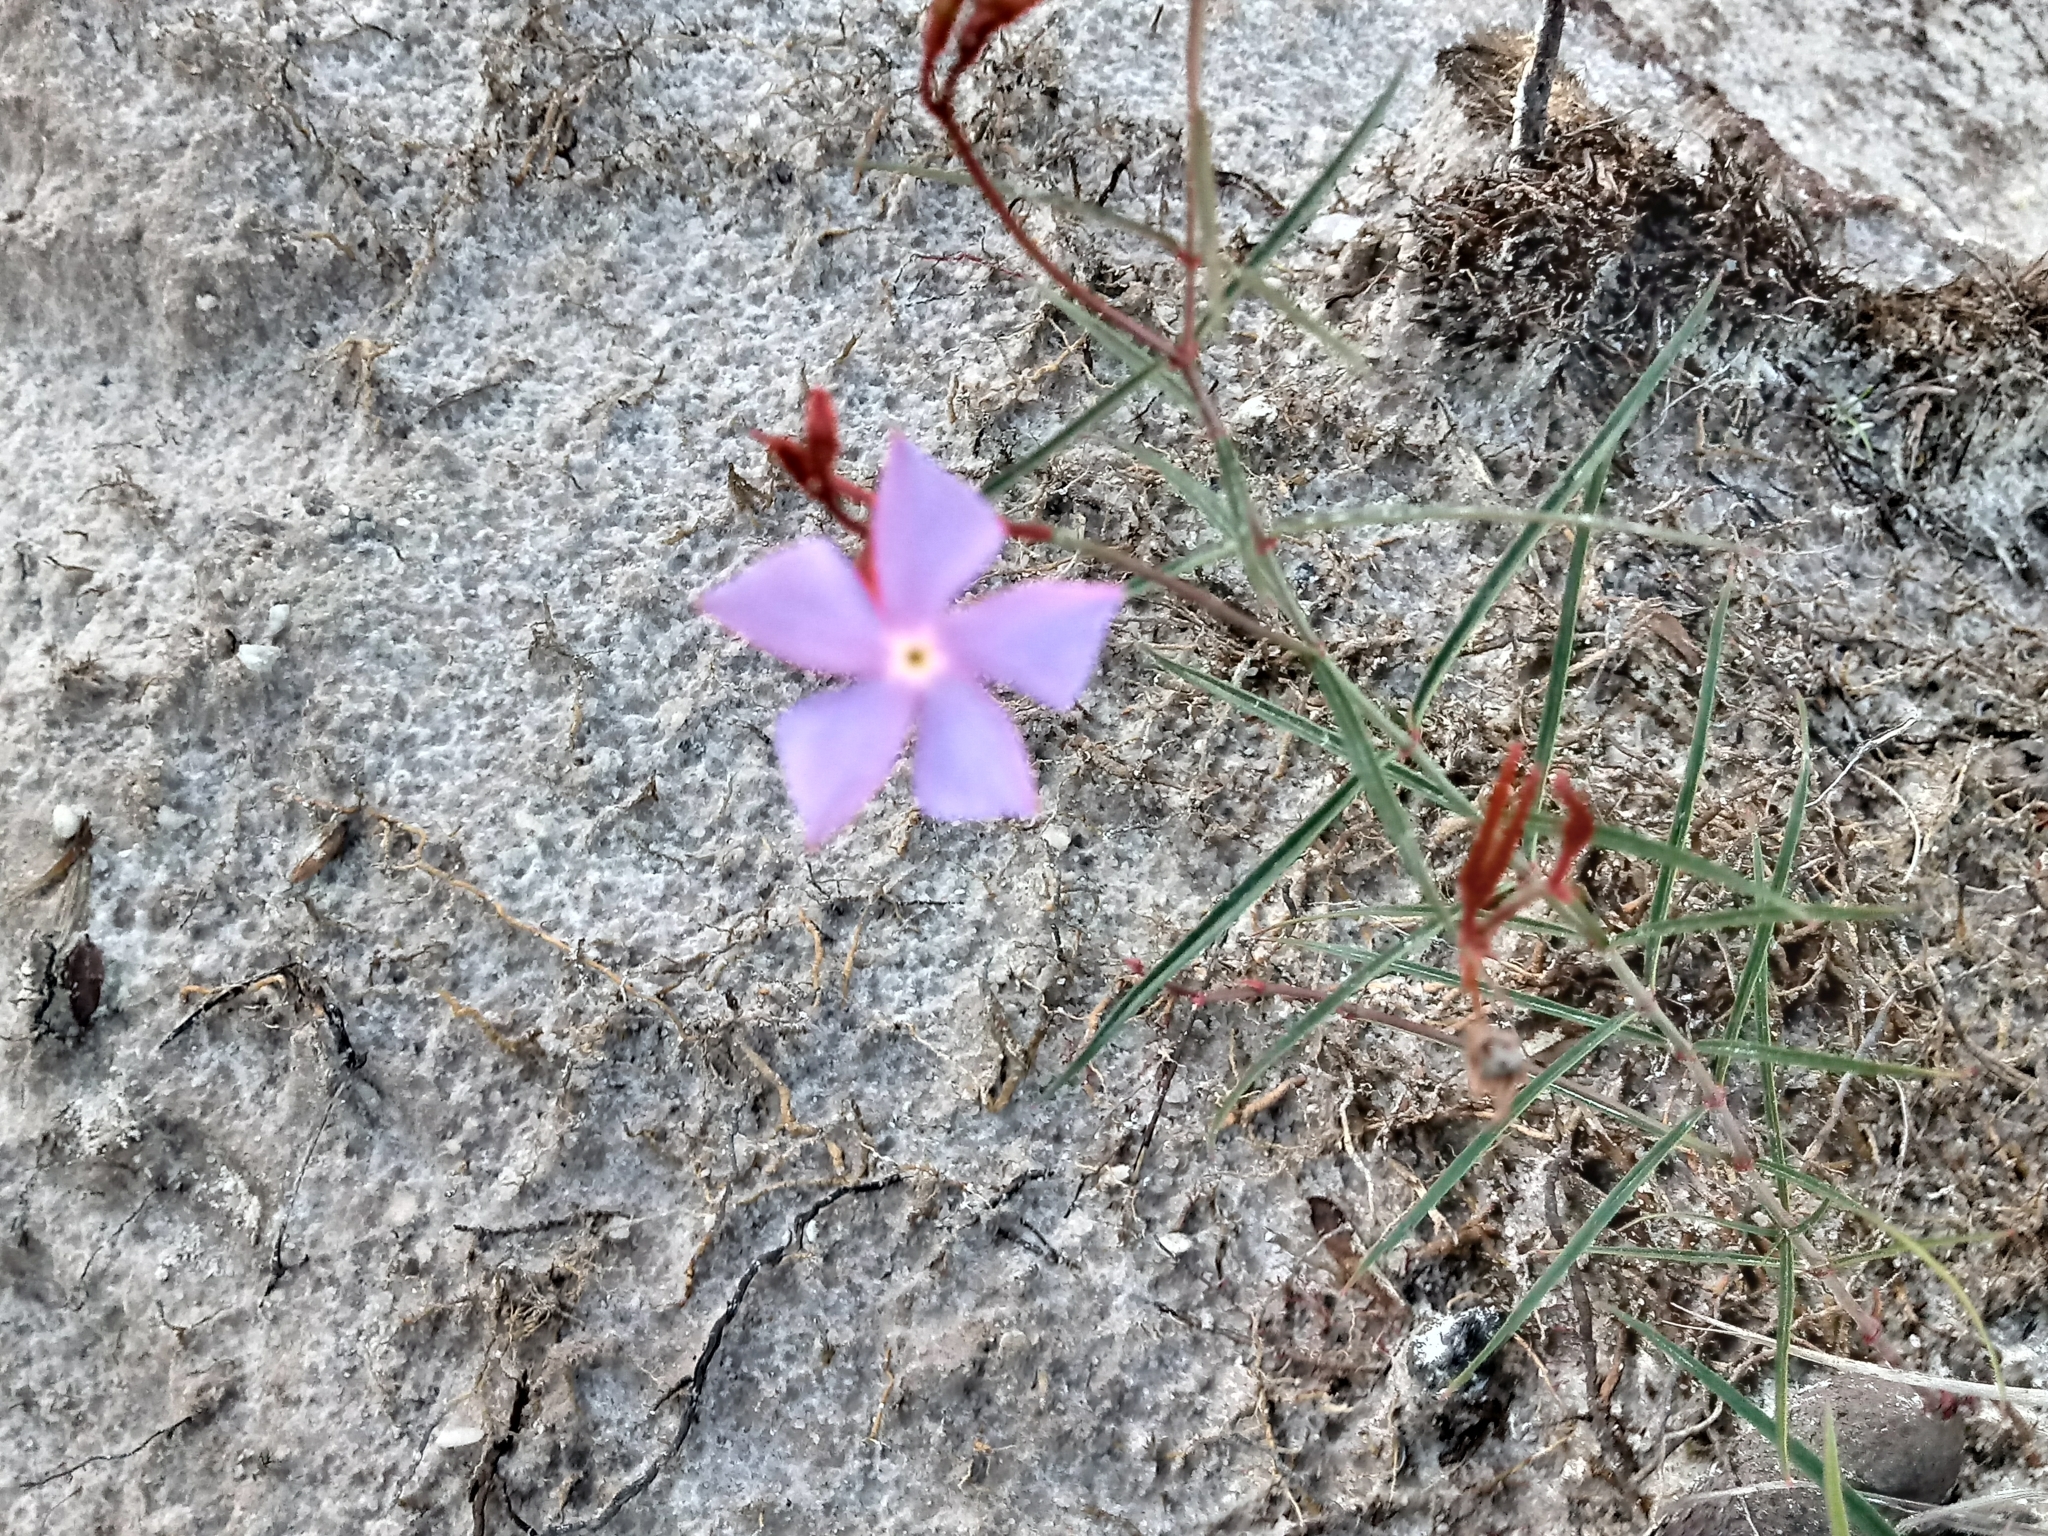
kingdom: Plantae
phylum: Tracheophyta
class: Magnoliopsida
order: Gentianales
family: Apocynaceae
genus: Mandevilla
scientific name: Mandevilla tenuifolia
